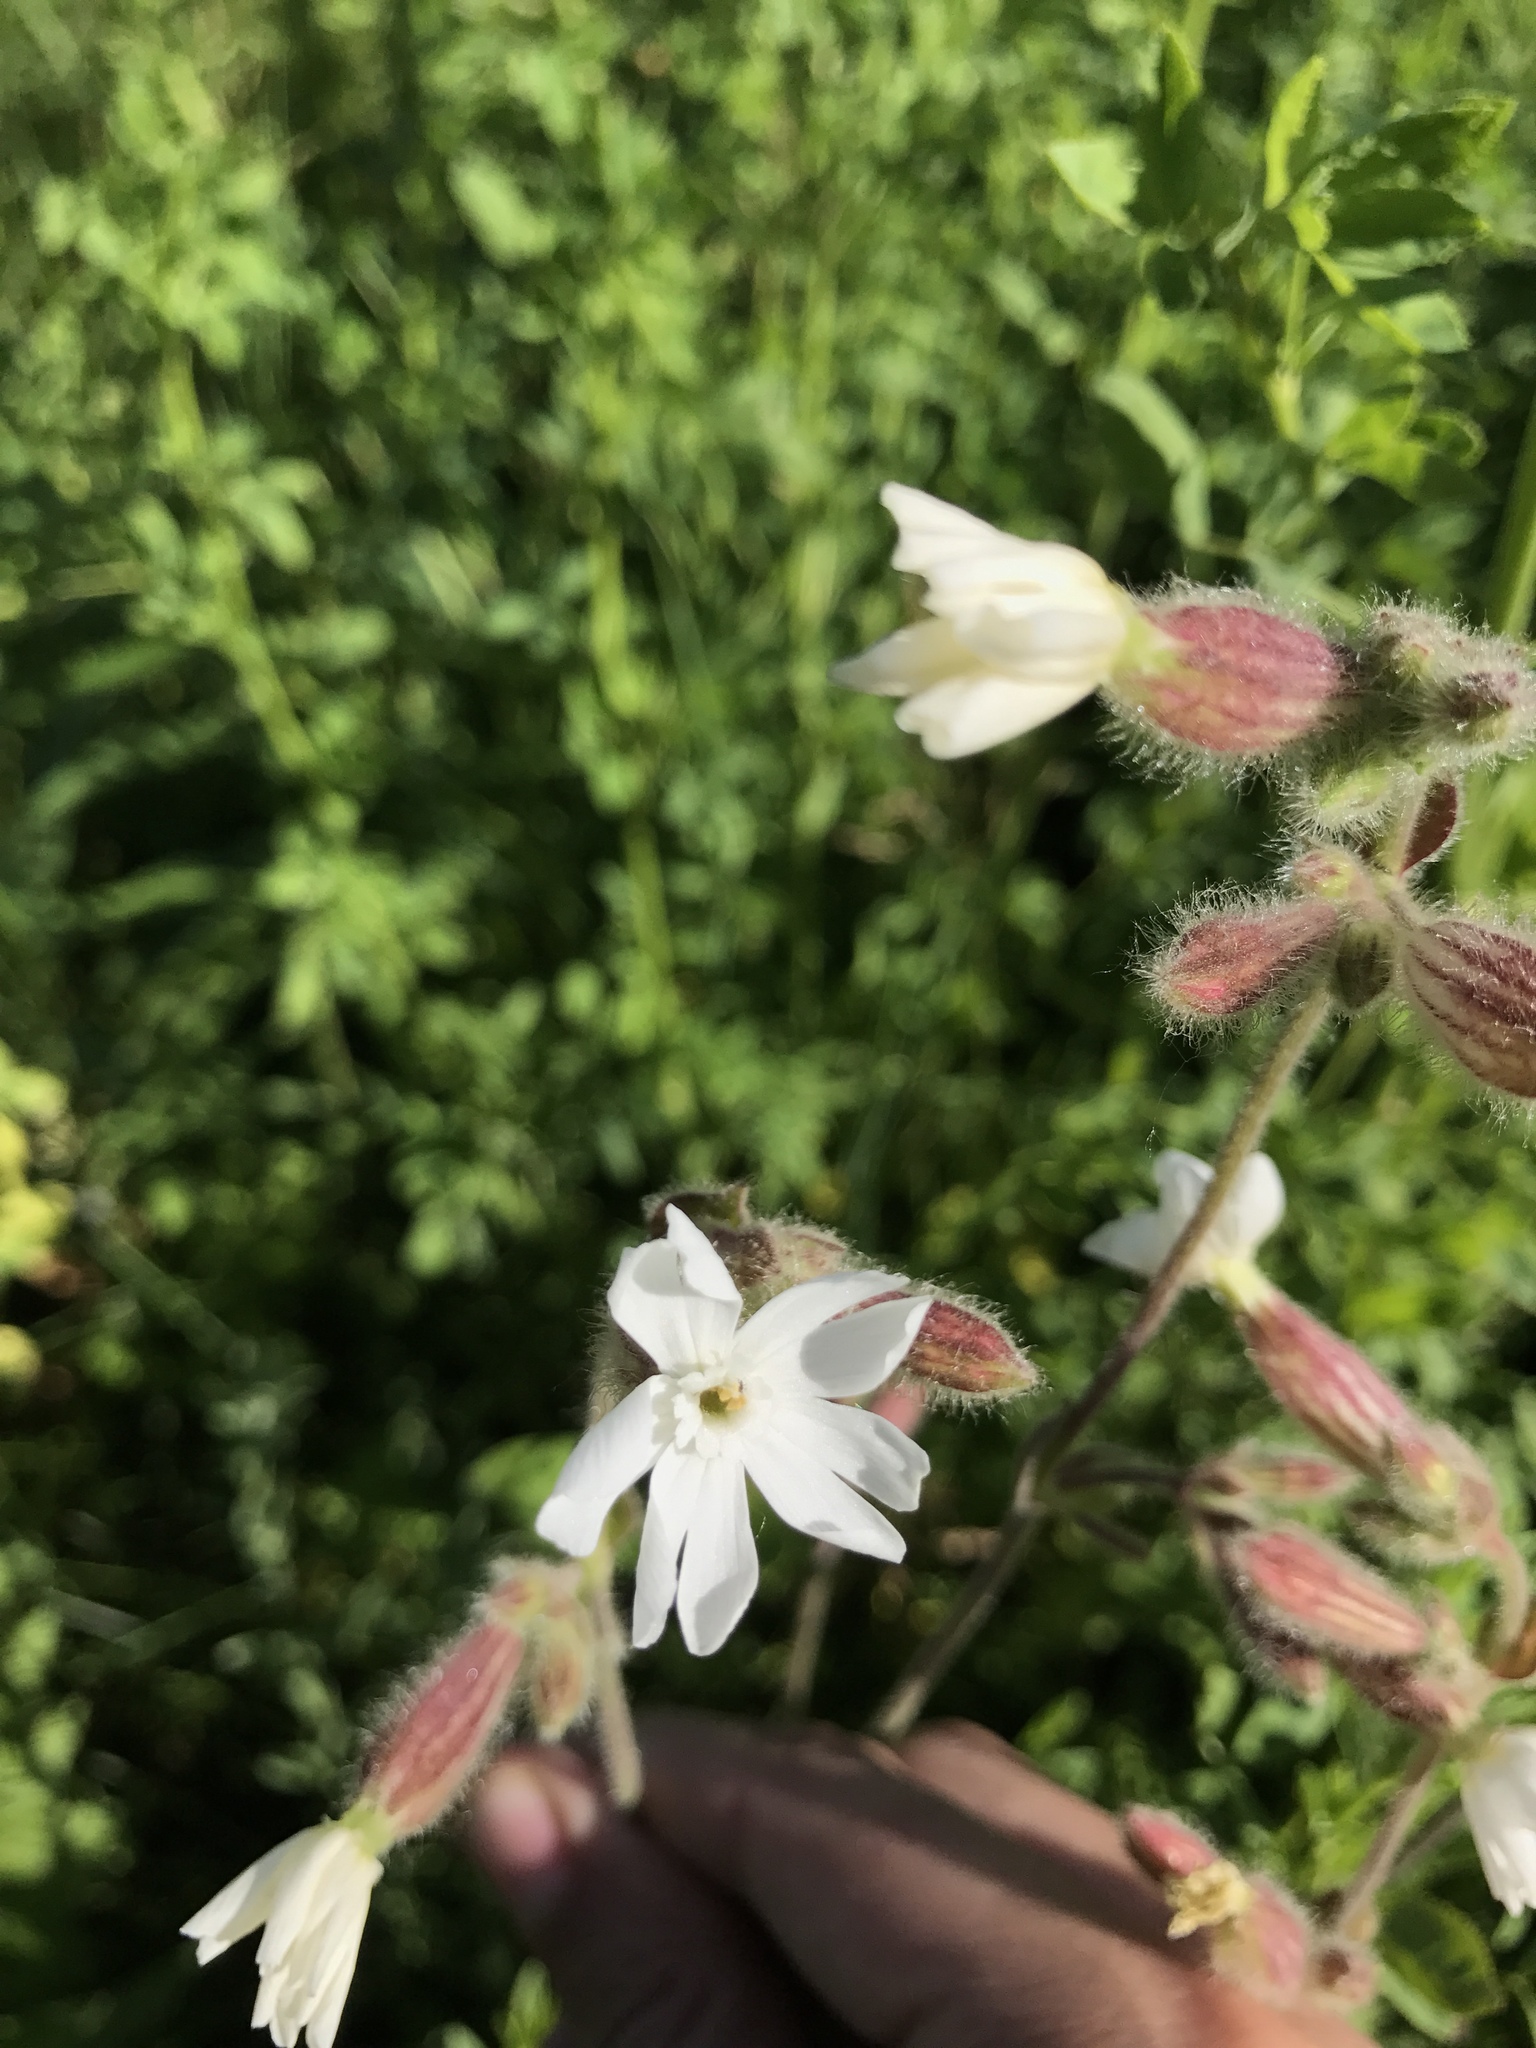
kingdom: Plantae
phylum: Tracheophyta
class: Magnoliopsida
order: Caryophyllales
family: Caryophyllaceae
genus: Silene
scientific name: Silene latifolia
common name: White campion
